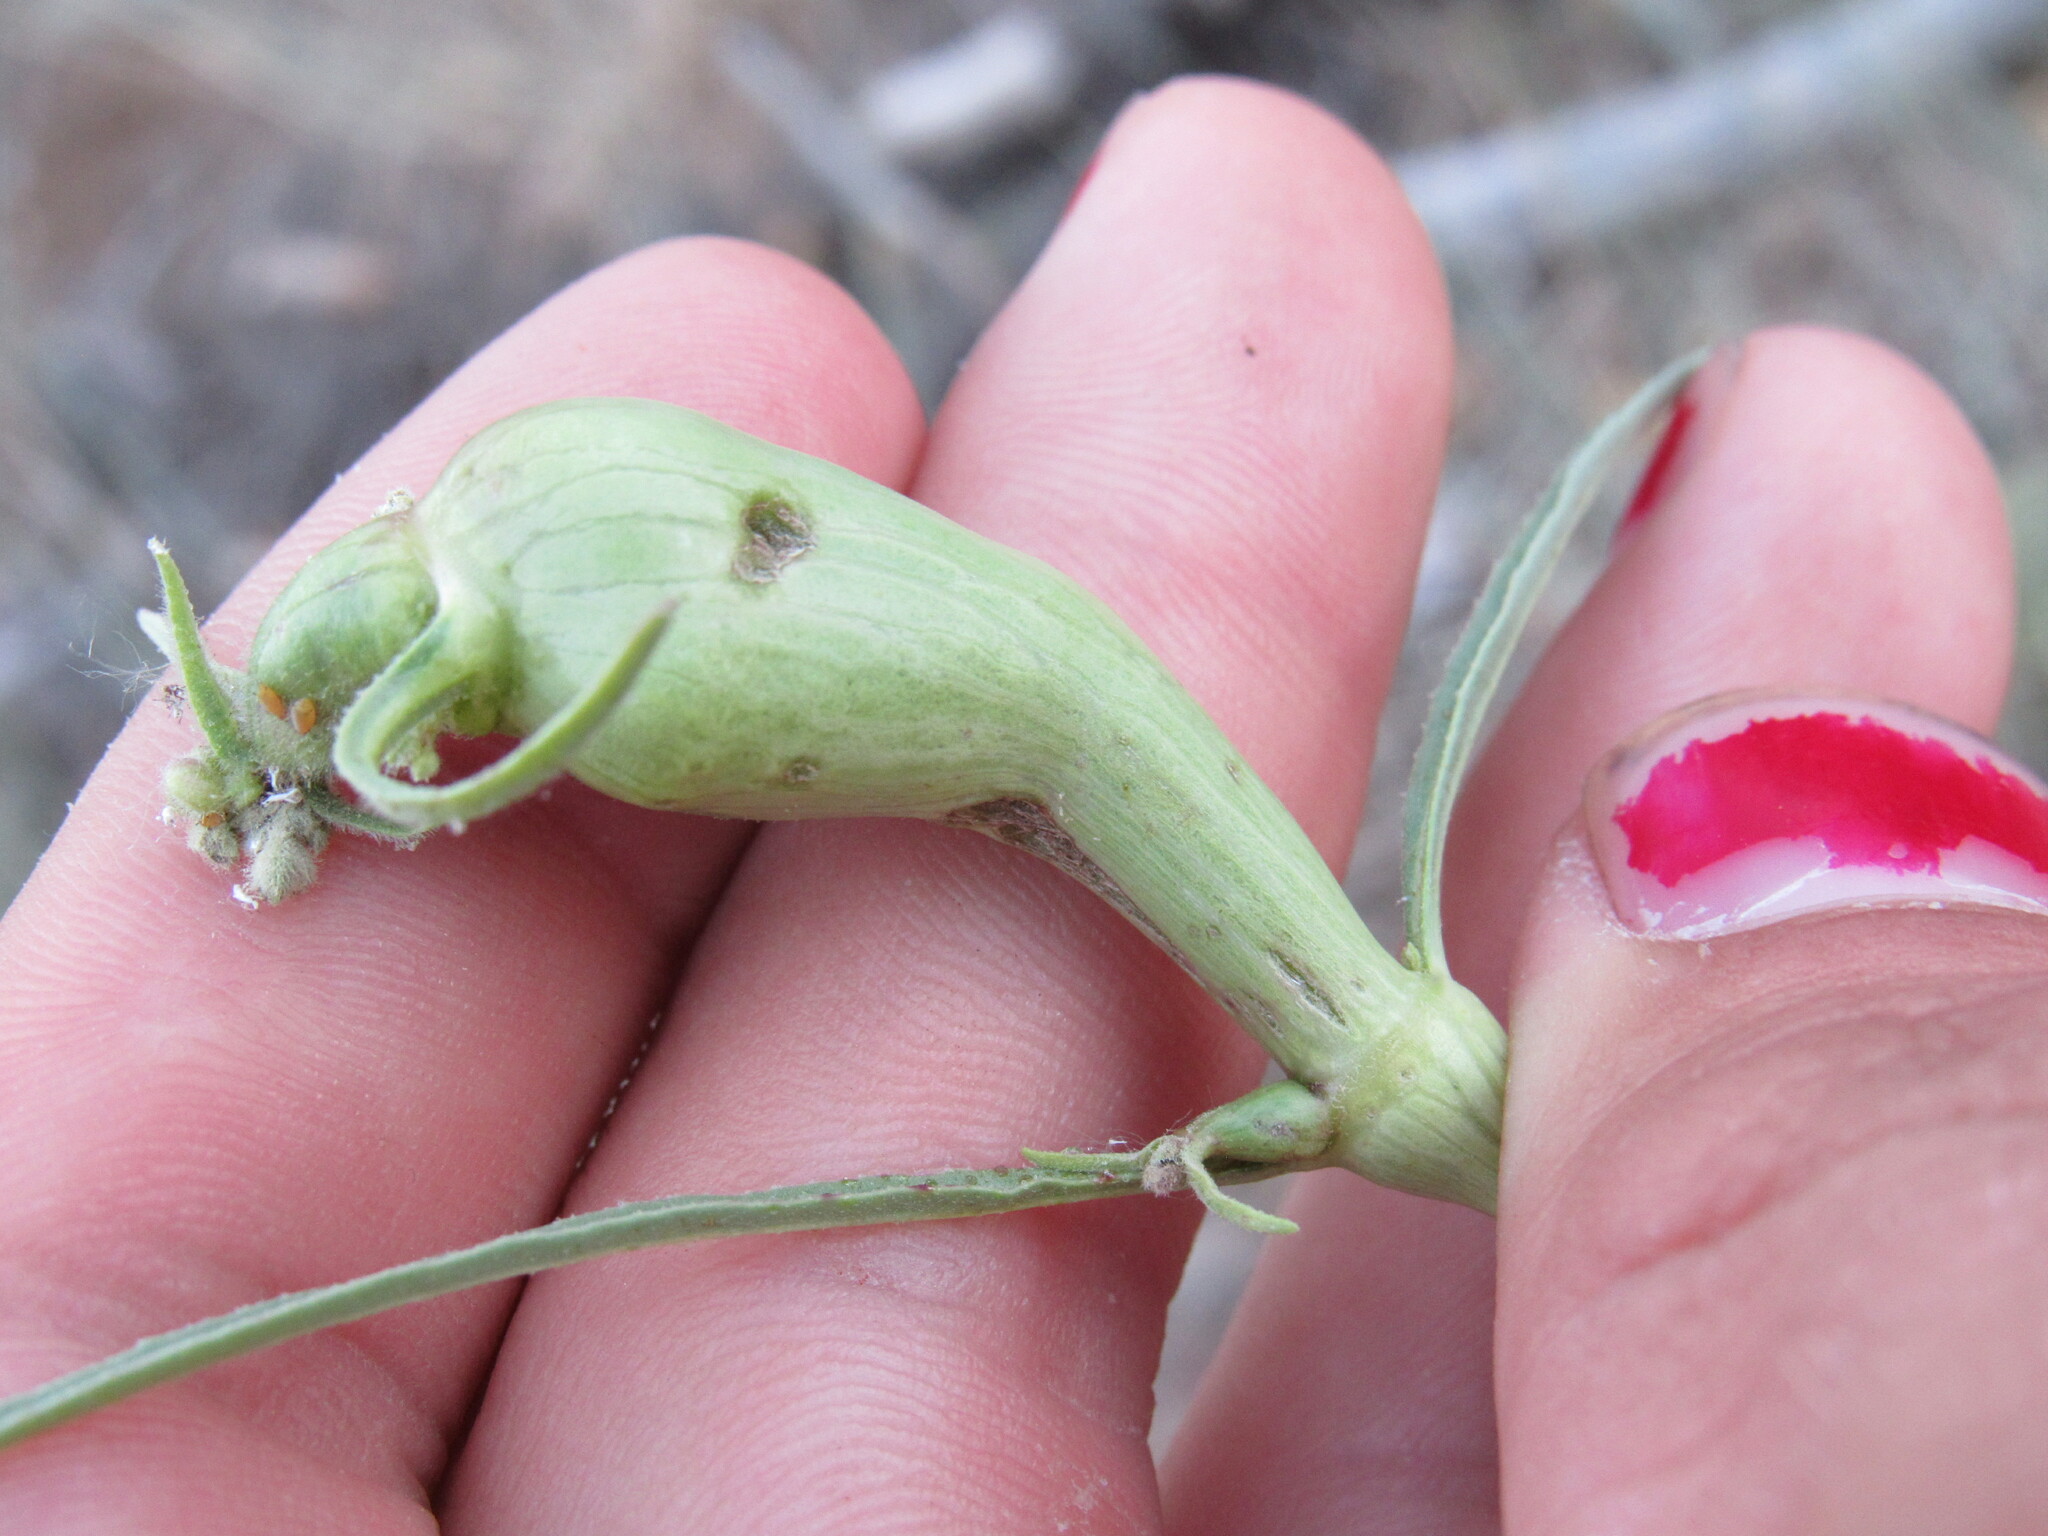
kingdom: Animalia
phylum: Arthropoda
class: Insecta
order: Diptera
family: Cecidomyiidae
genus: Neolasioptera
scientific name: Neolasioptera allioniae
